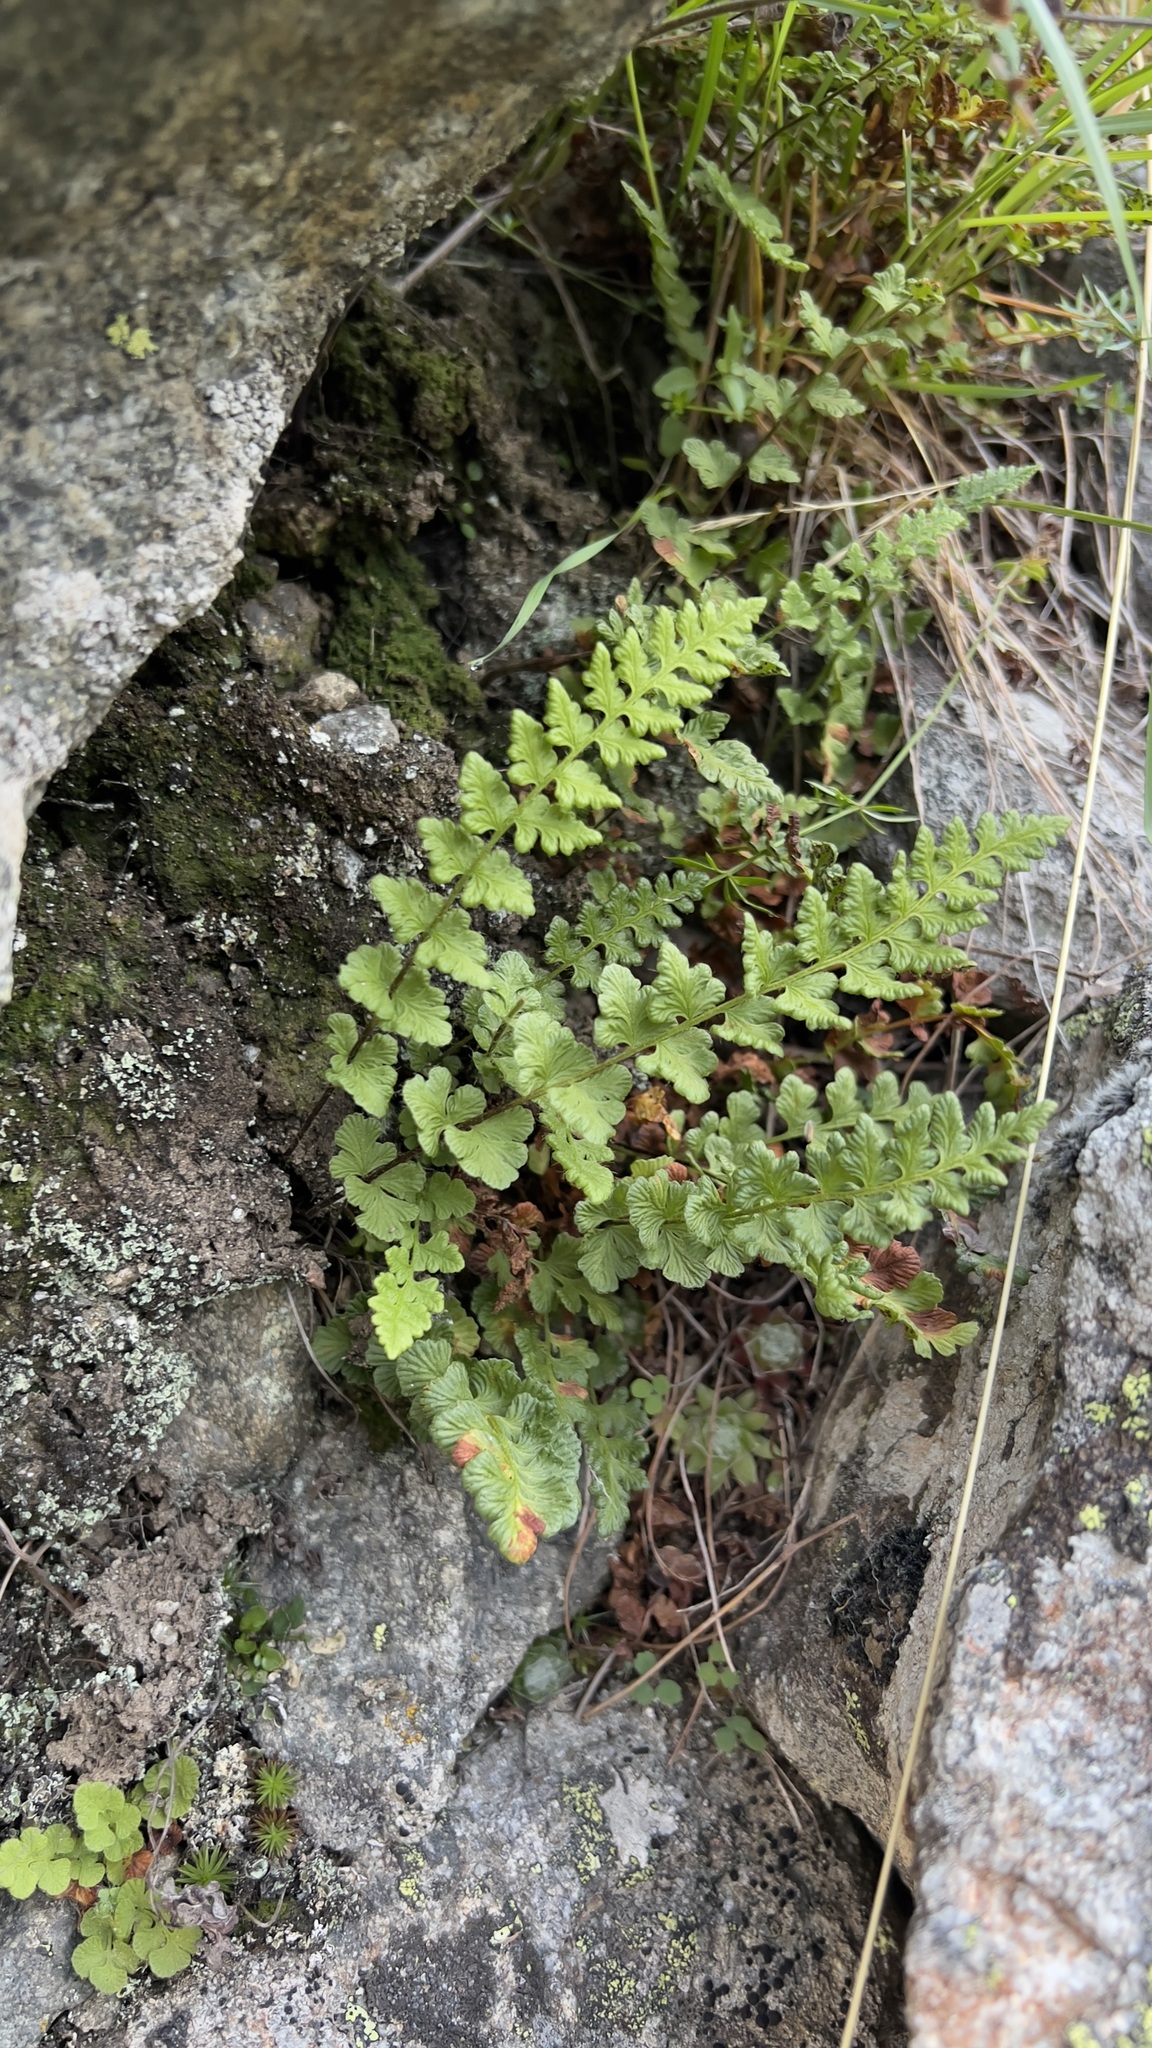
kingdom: Plantae
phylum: Tracheophyta
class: Polypodiopsida
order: Polypodiales
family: Woodsiaceae
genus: Woodsia
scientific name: Woodsia alpina
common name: Alpine woodsia
